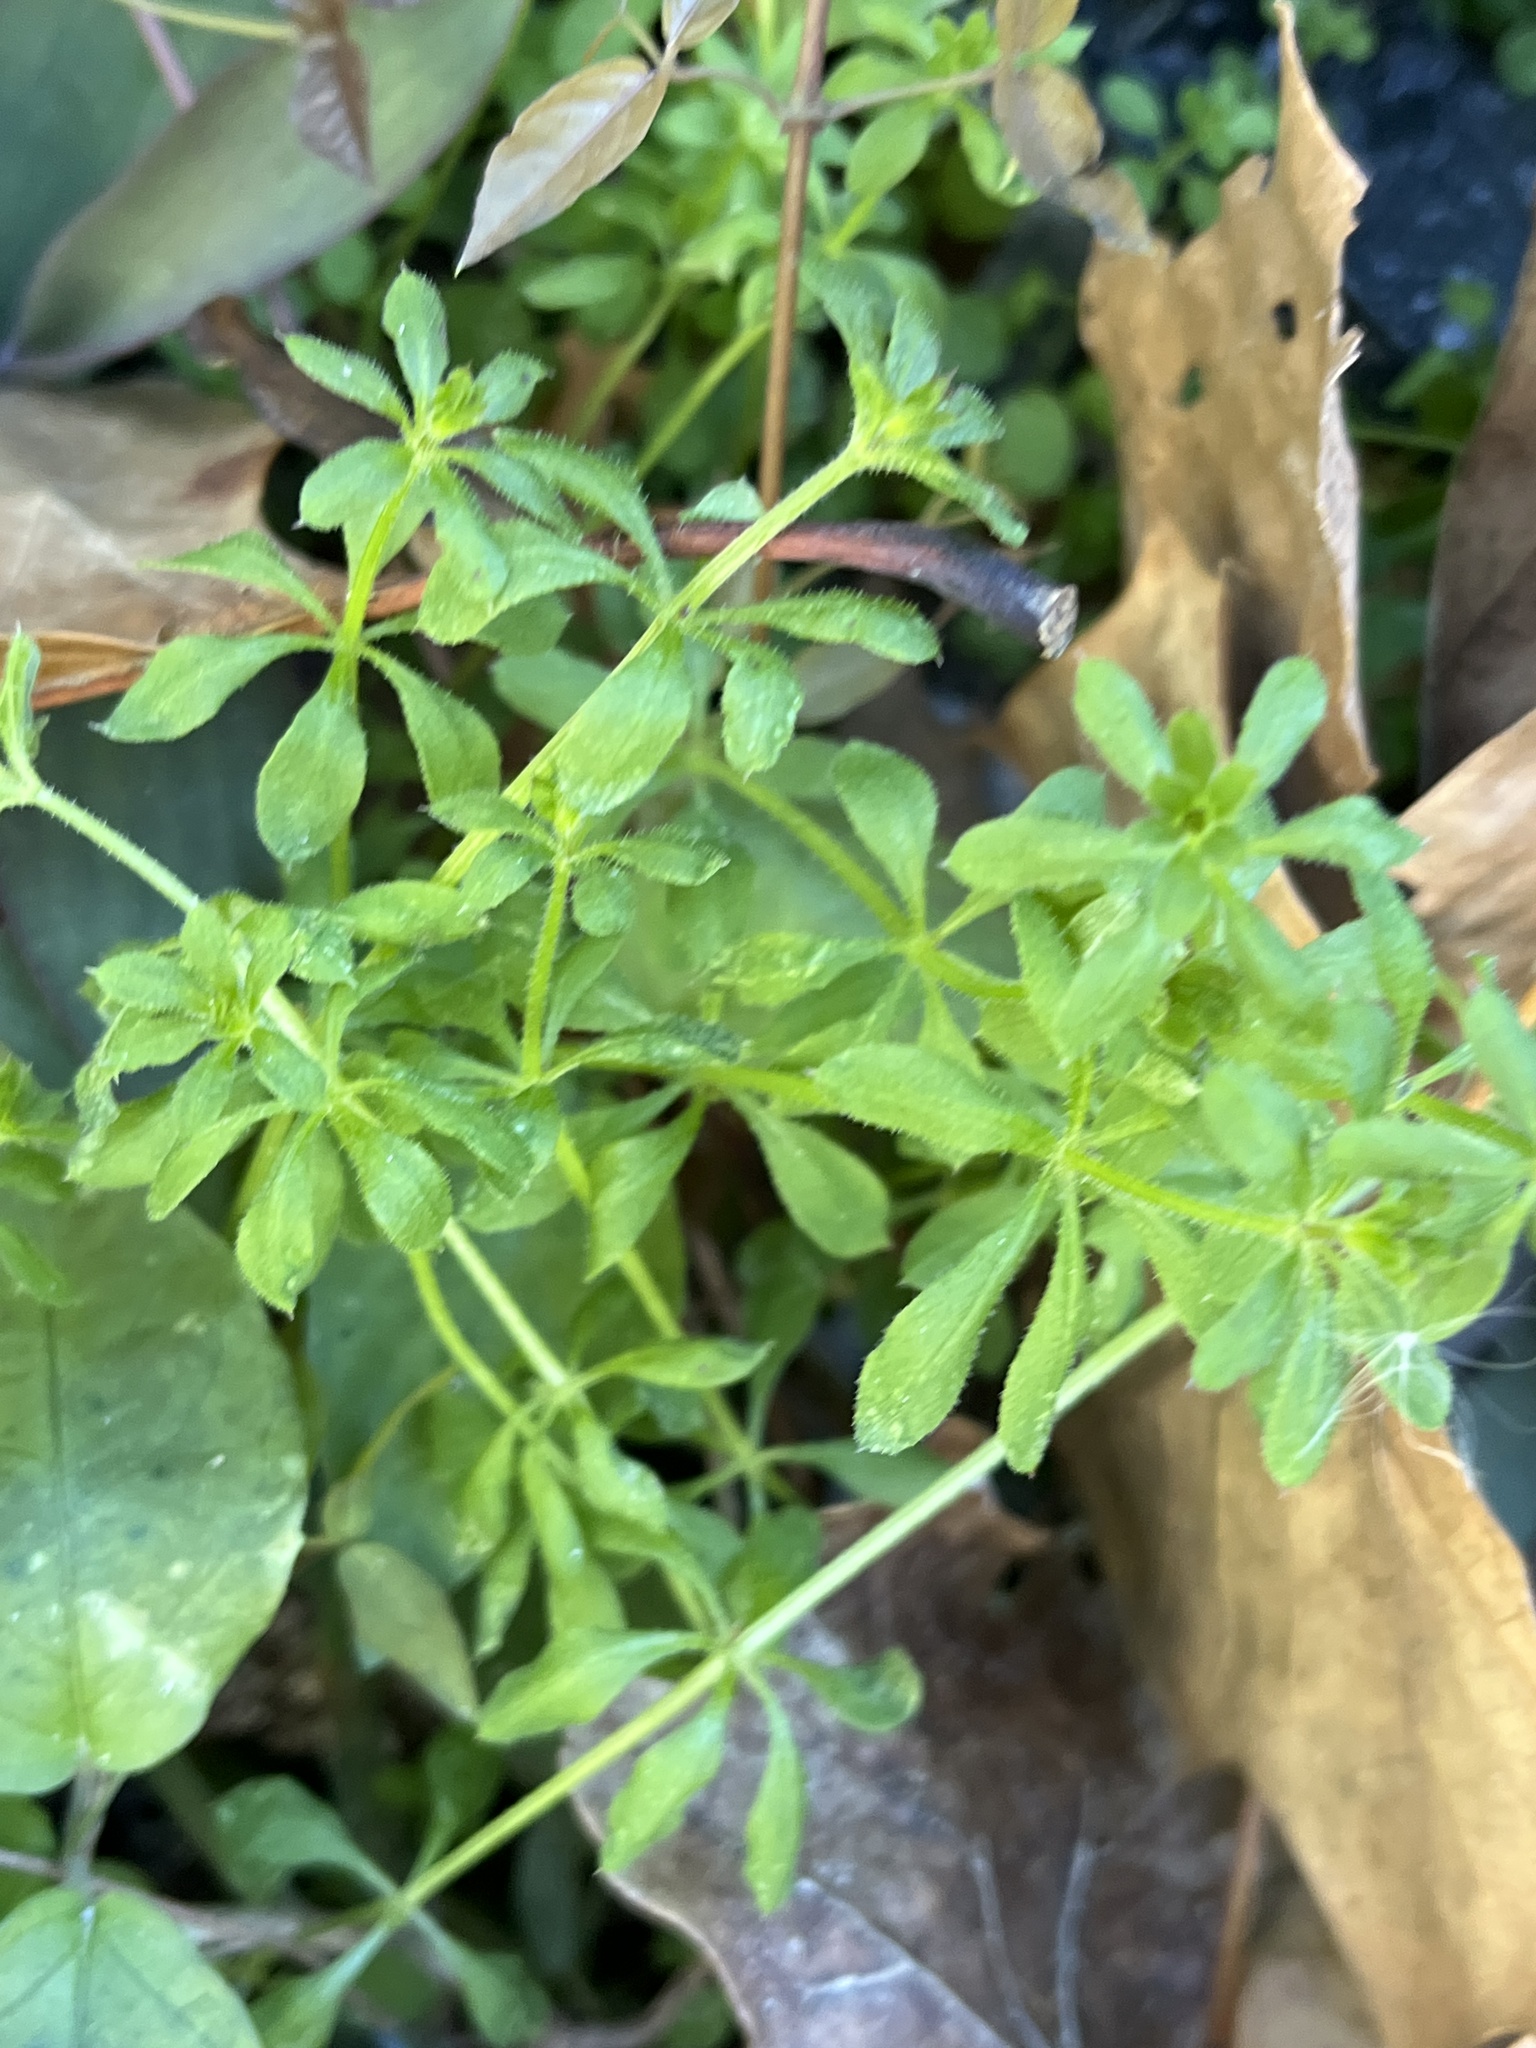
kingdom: Plantae
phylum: Tracheophyta
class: Magnoliopsida
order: Gentianales
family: Rubiaceae
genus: Galium
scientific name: Galium aparine
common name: Cleavers
